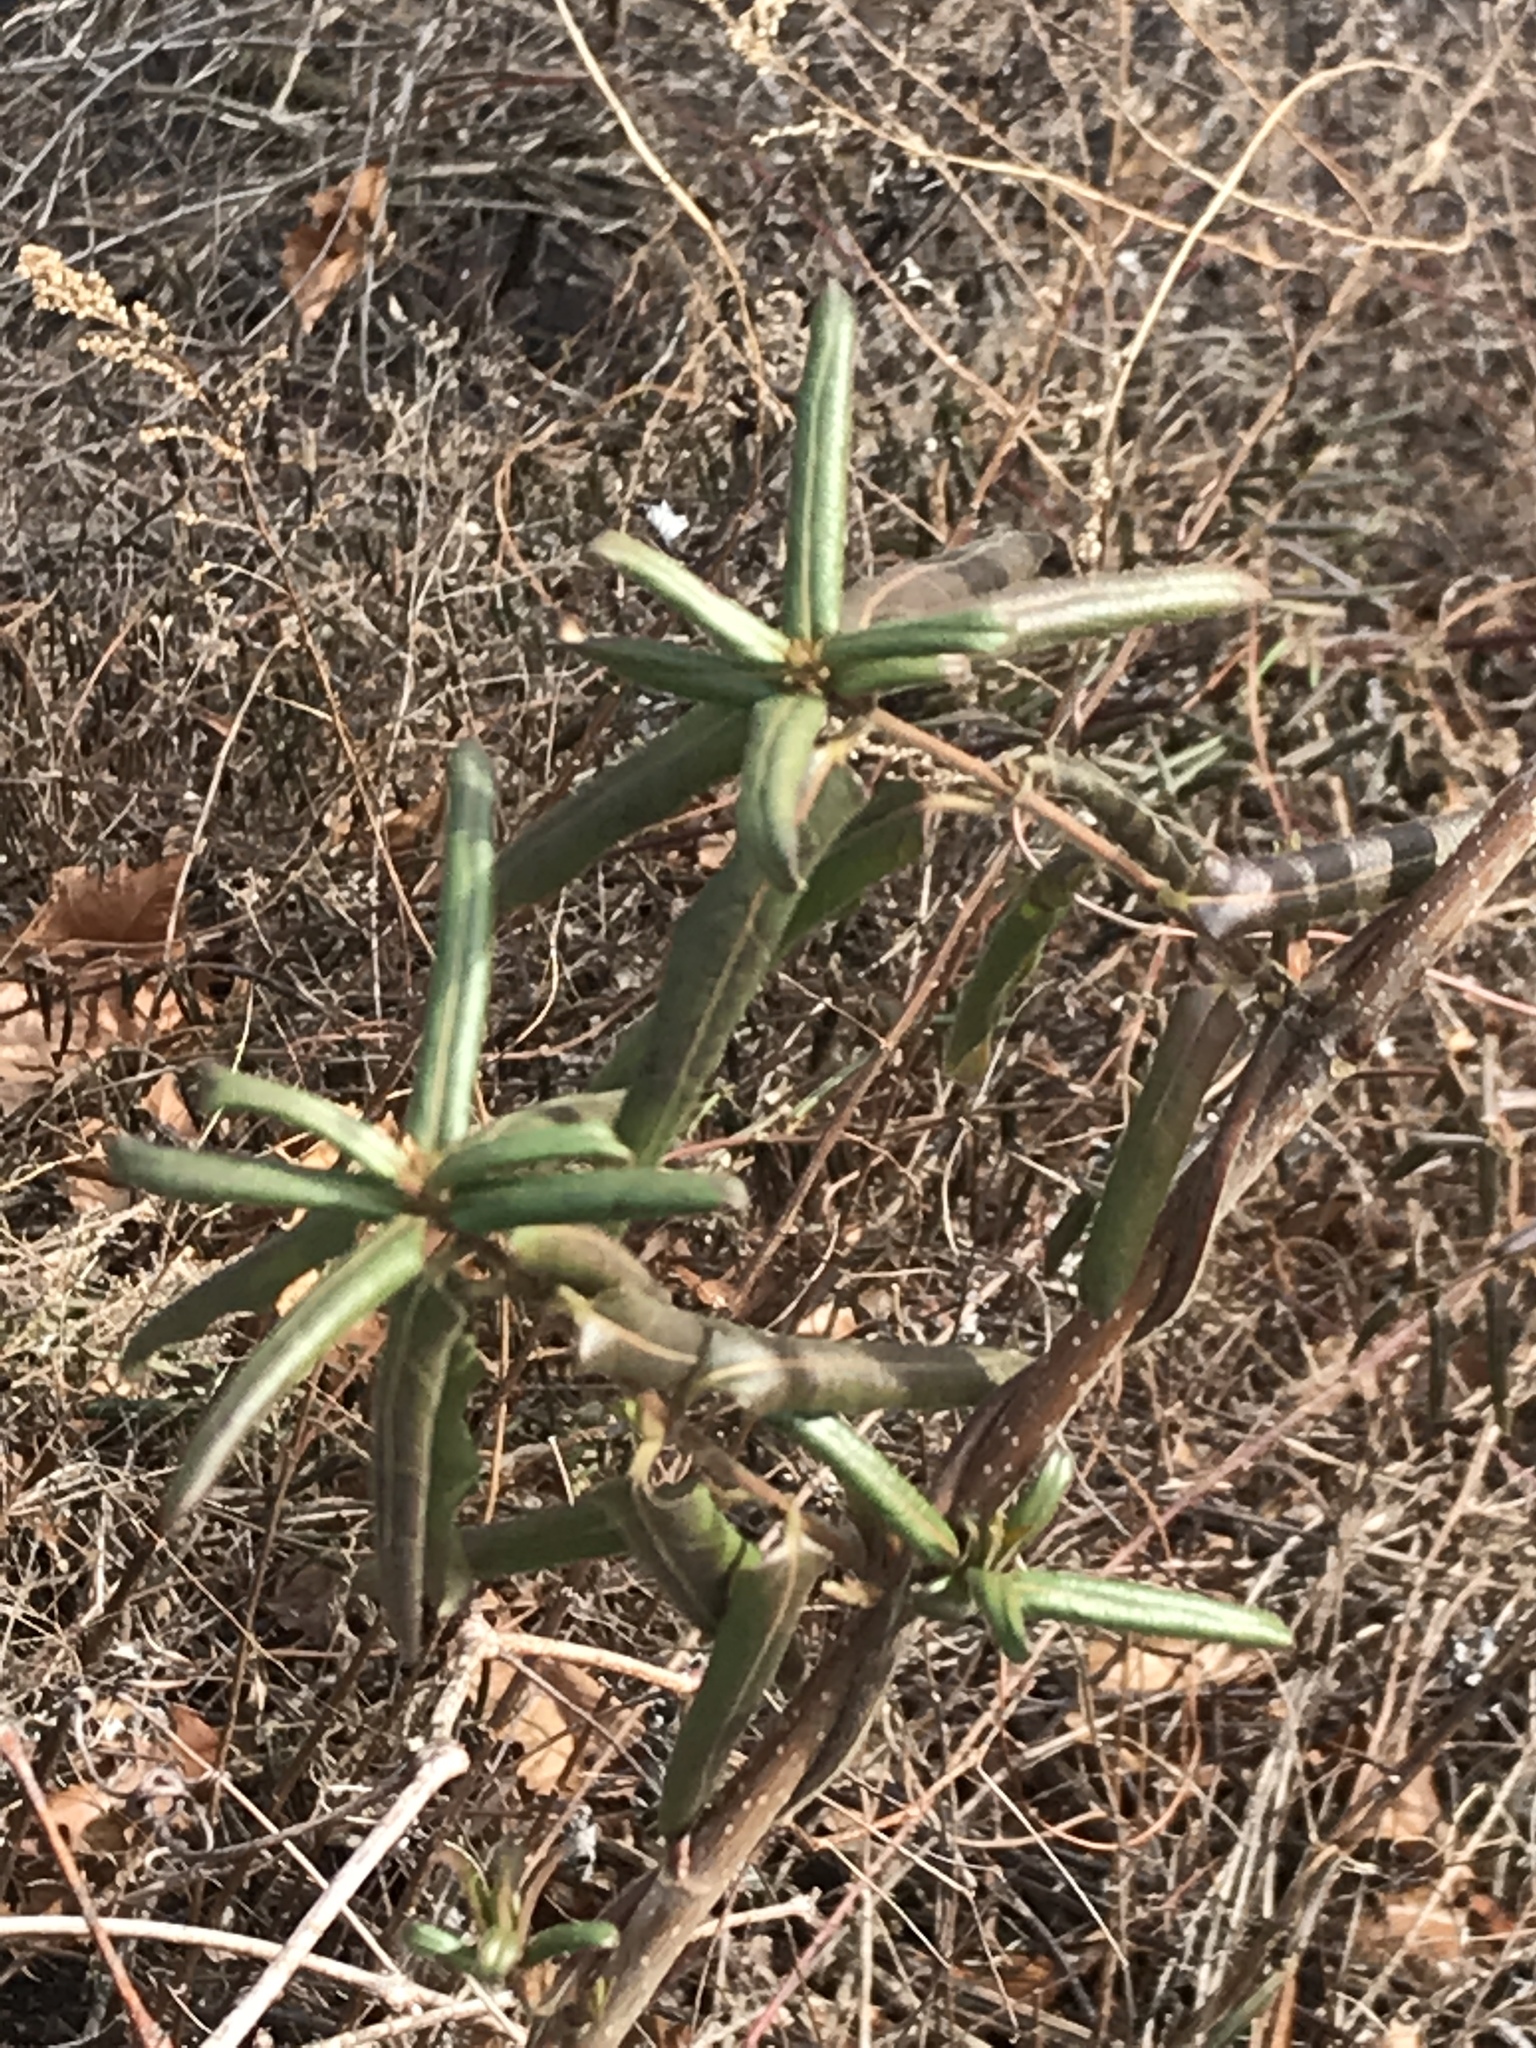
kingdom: Plantae
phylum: Tracheophyta
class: Magnoliopsida
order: Dipsacales
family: Caprifoliaceae
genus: Lonicera
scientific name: Lonicera japonica
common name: Japanese honeysuckle
